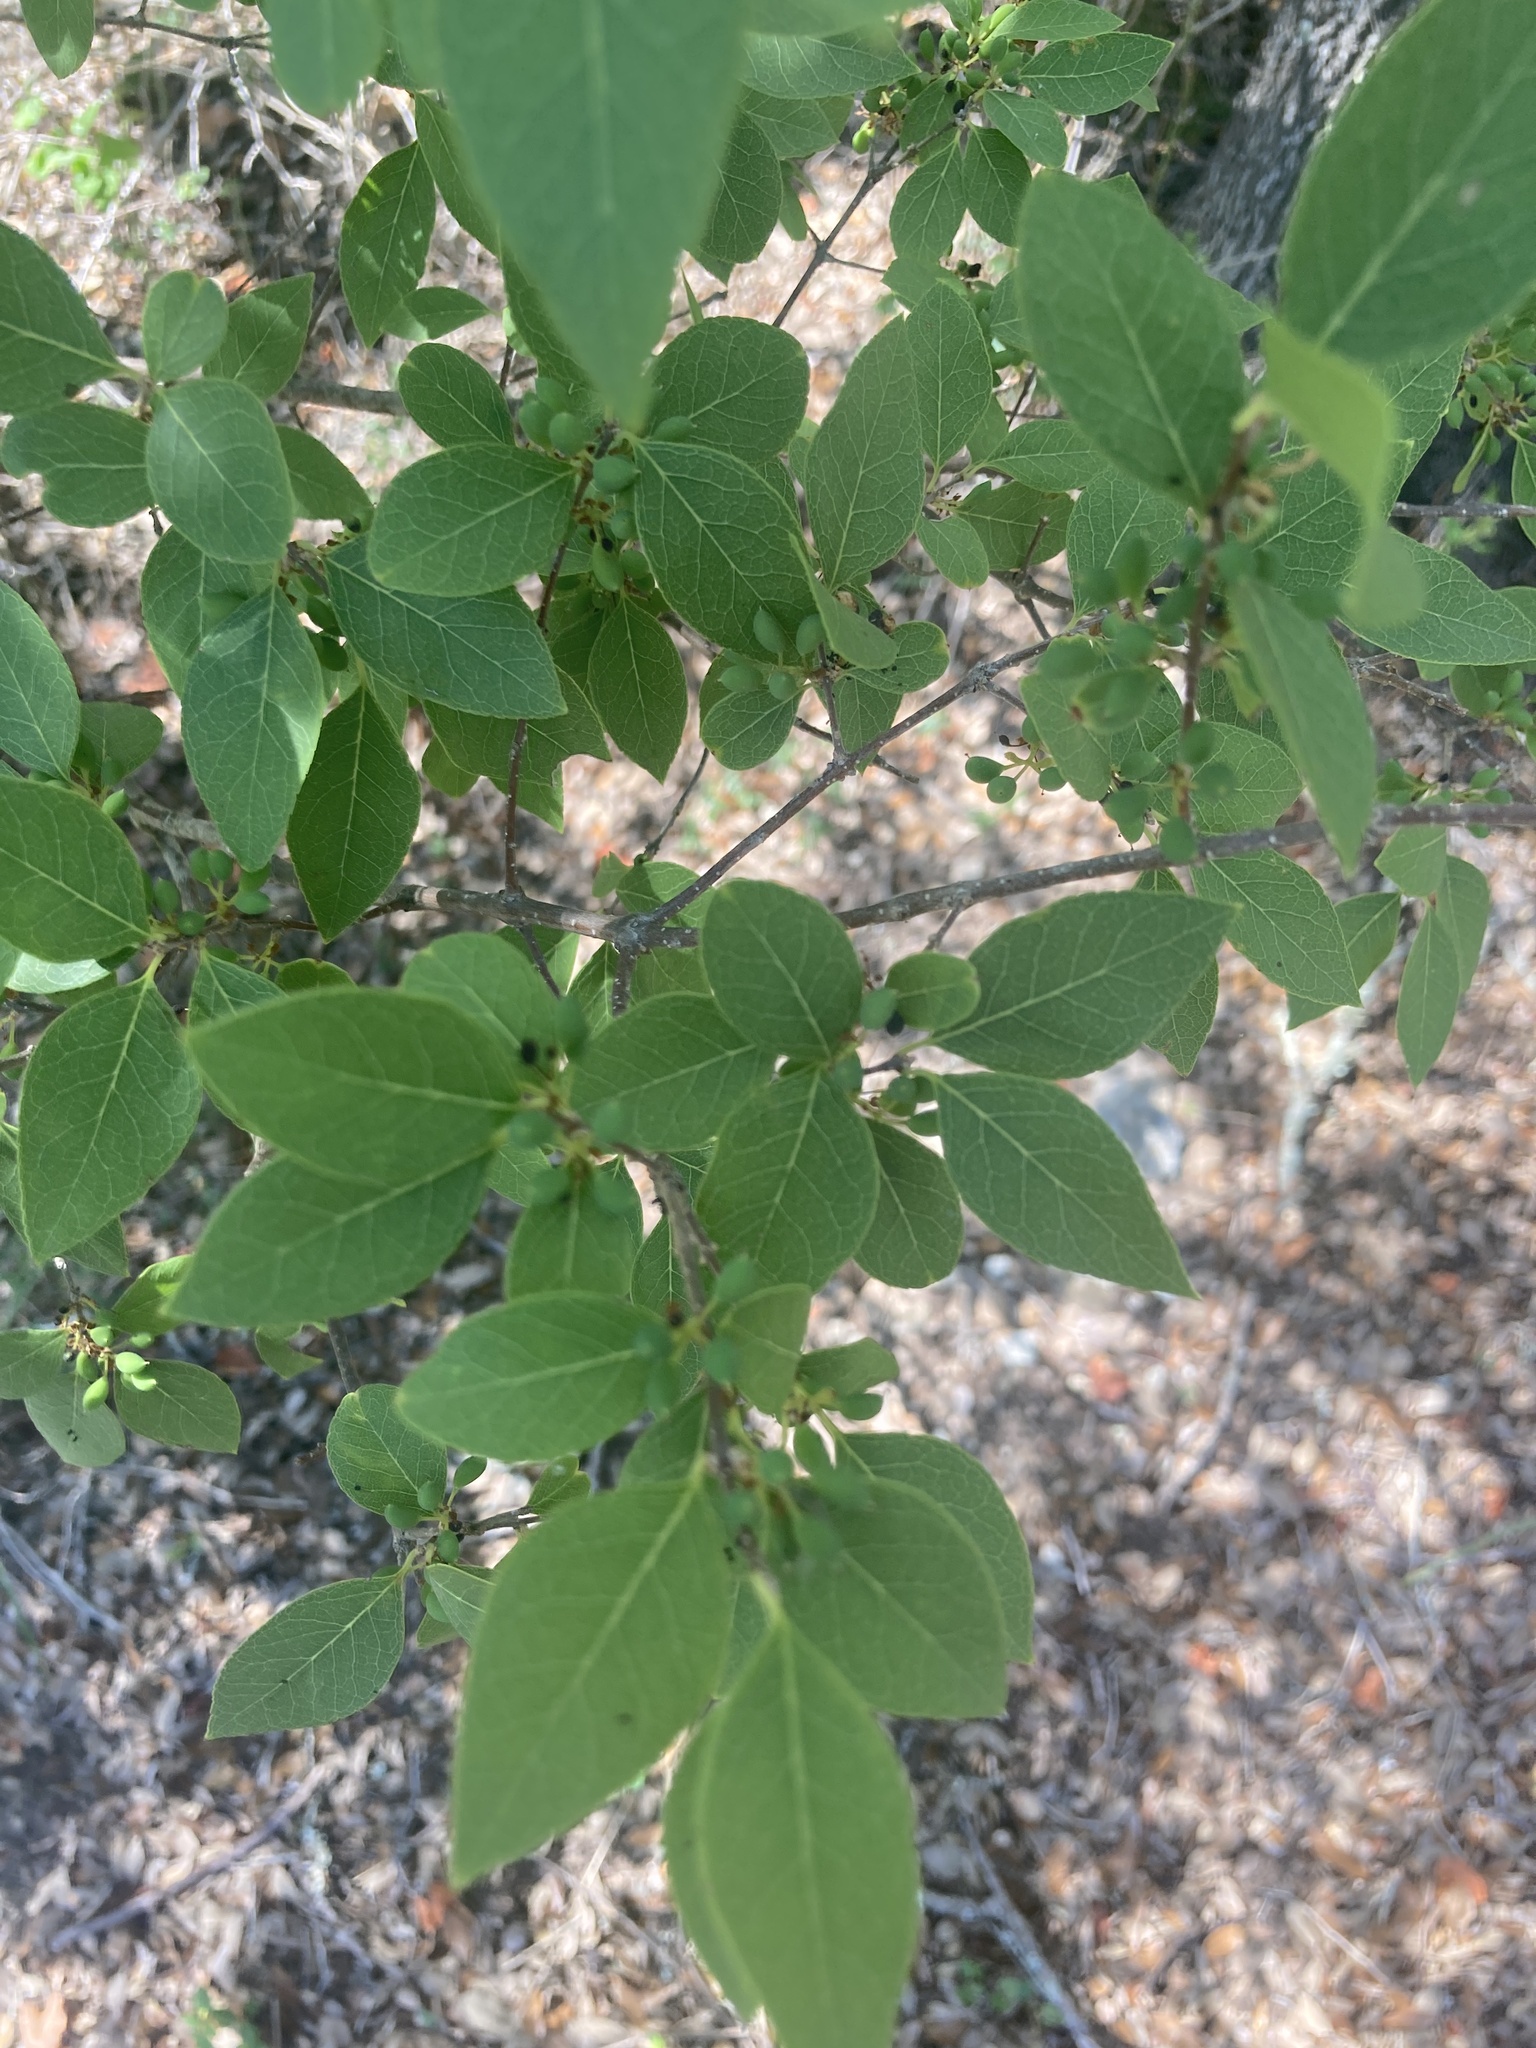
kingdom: Plantae
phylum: Tracheophyta
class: Magnoliopsida
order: Lamiales
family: Oleaceae
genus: Forestiera
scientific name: Forestiera reticulata
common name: Netleaf swamp-privet
